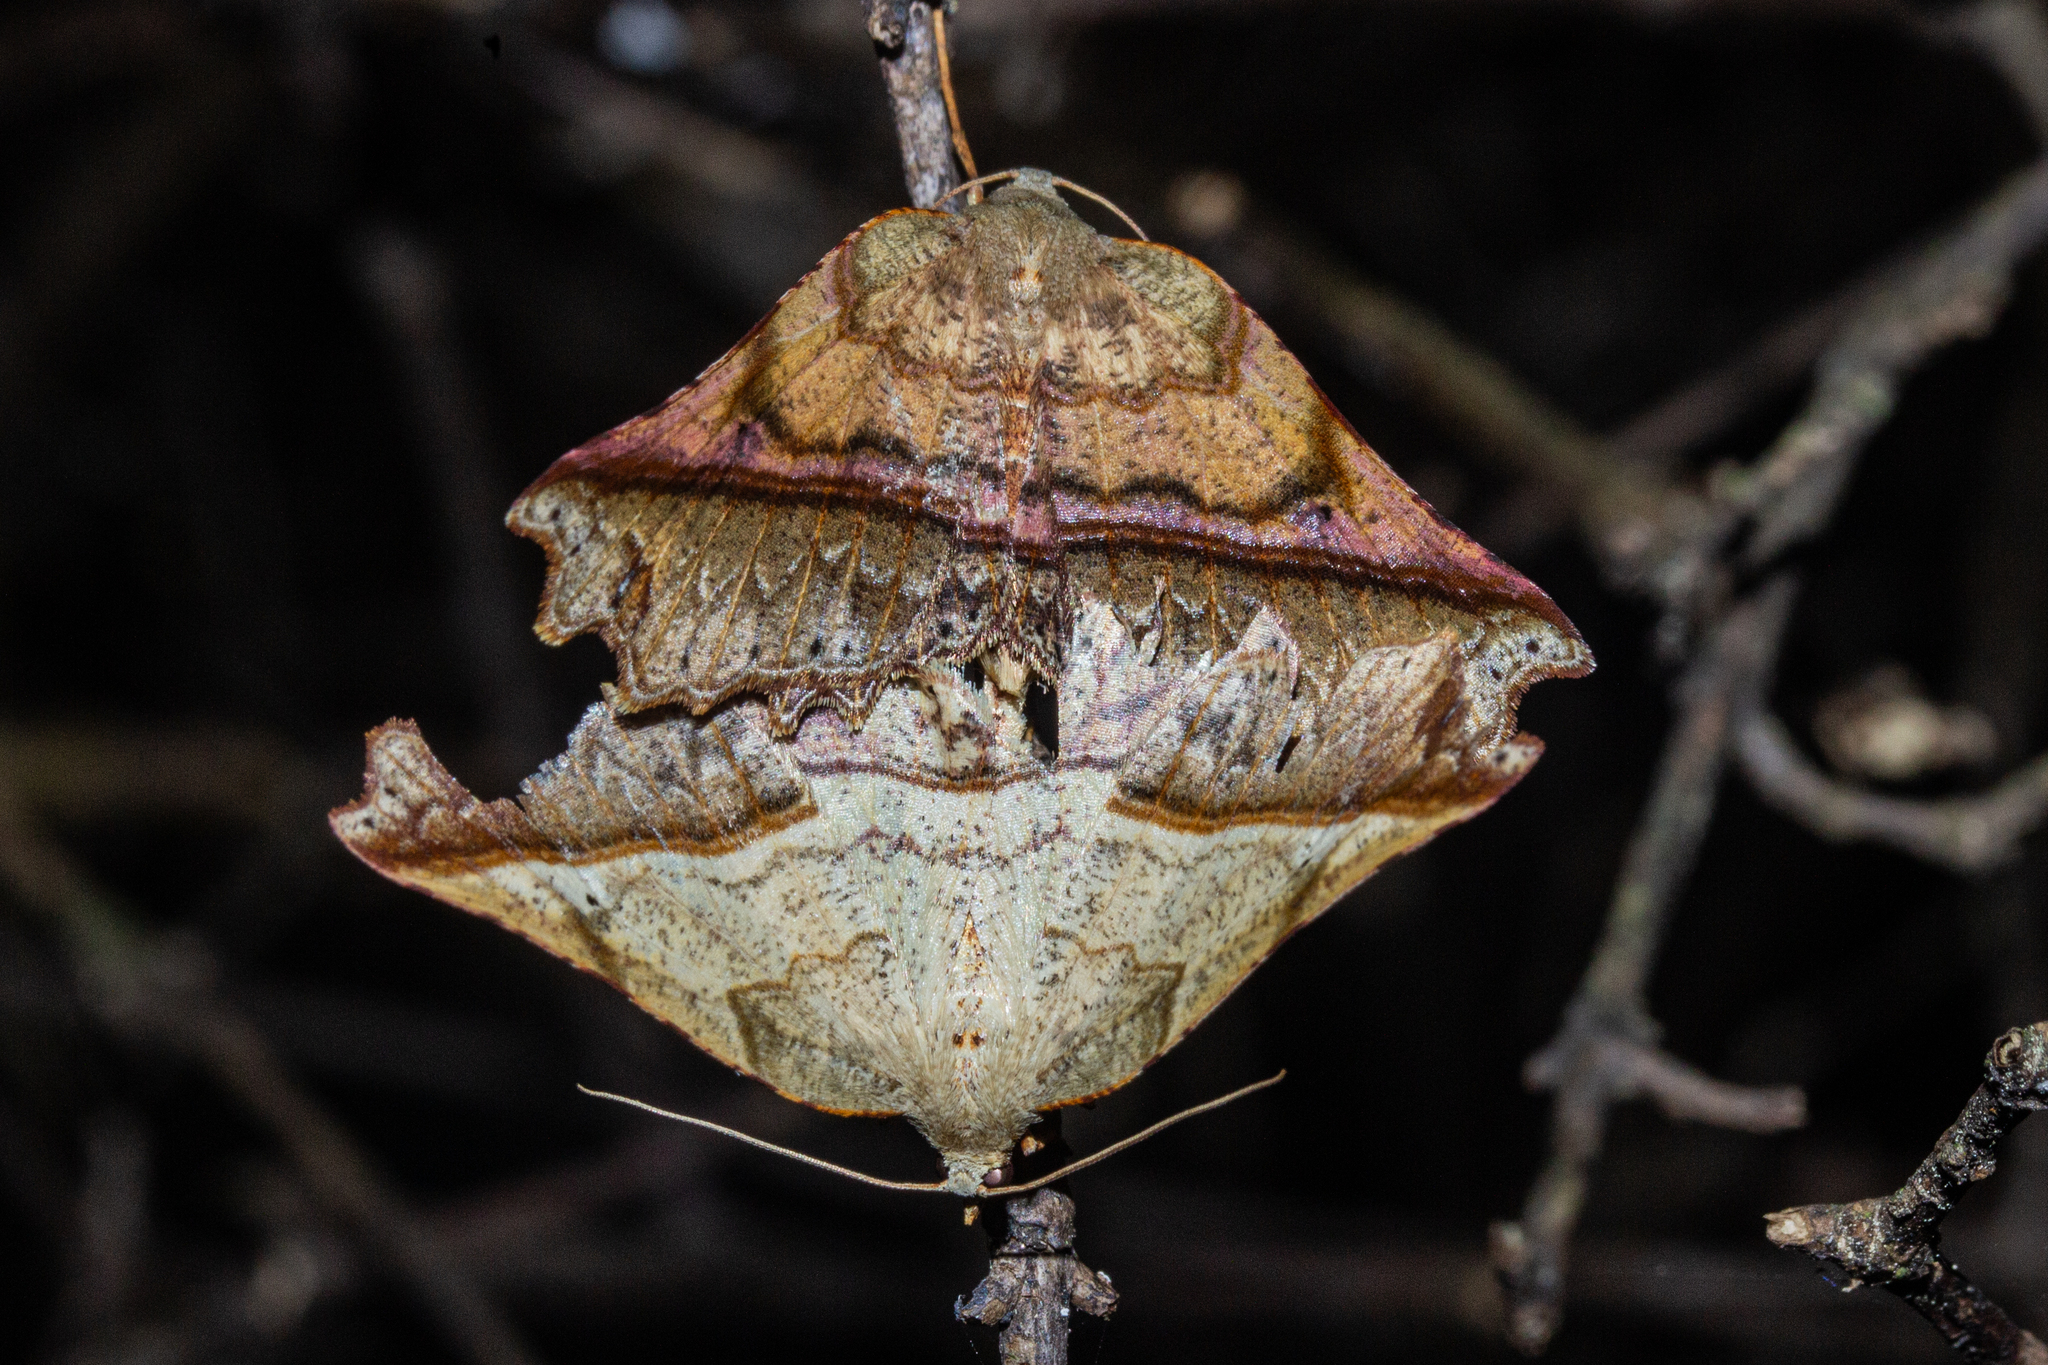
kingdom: Animalia
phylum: Arthropoda
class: Insecta
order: Lepidoptera
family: Geometridae
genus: Ischalis
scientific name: Ischalis gallaria
